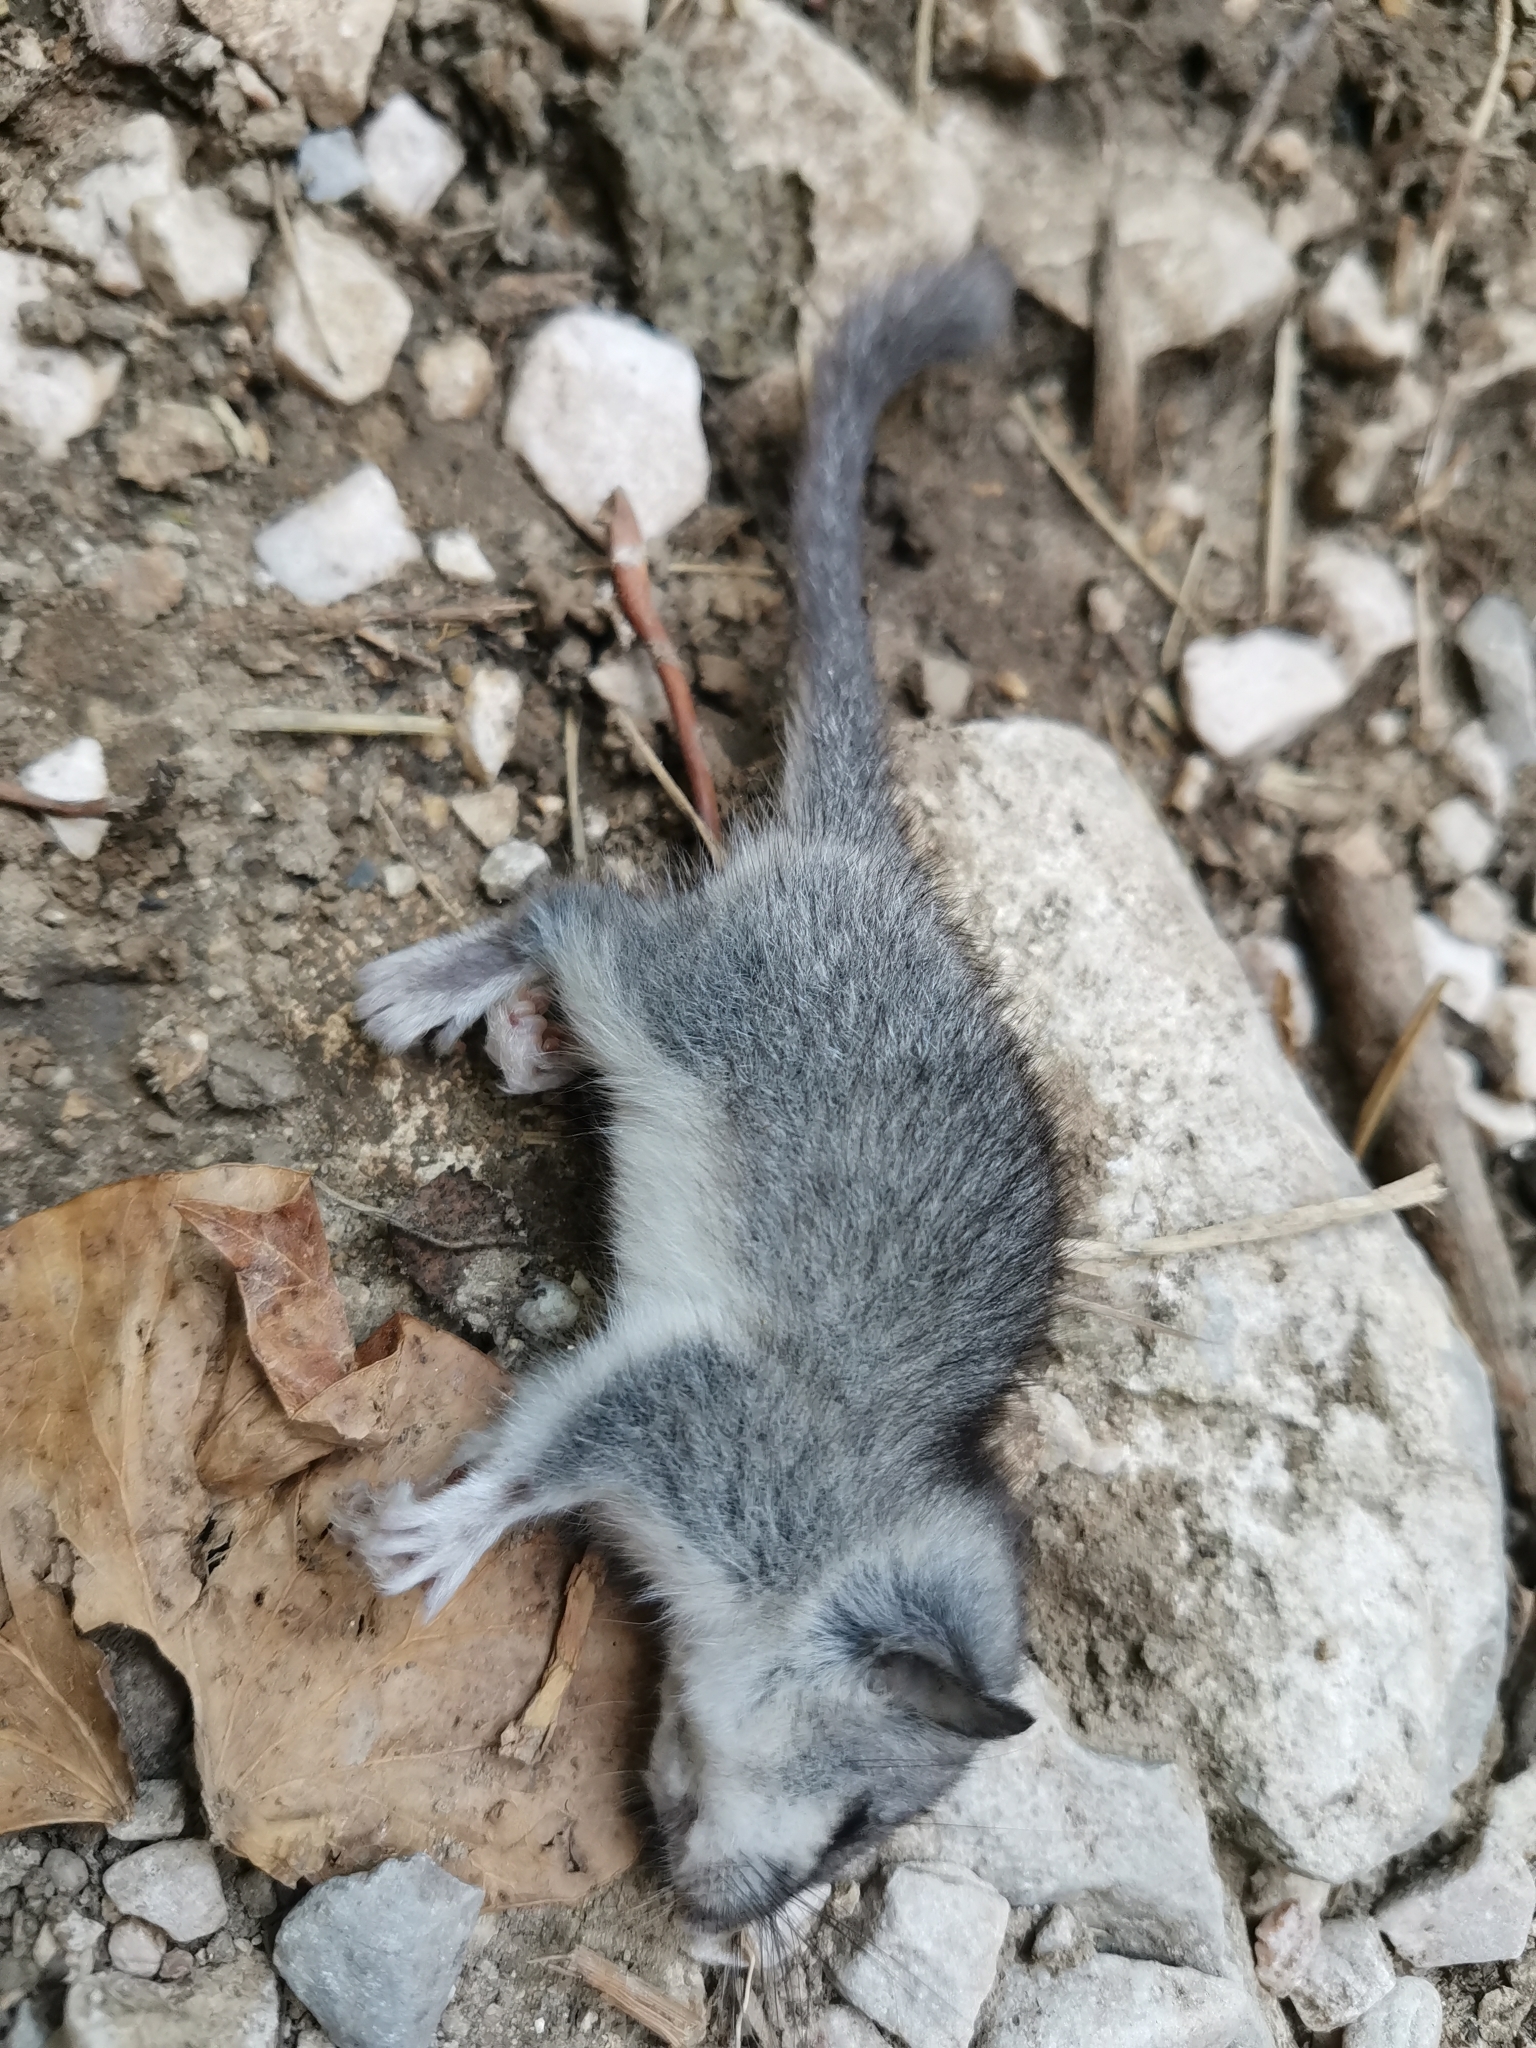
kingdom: Animalia
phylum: Chordata
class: Mammalia
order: Rodentia
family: Gliridae
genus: Glis
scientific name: Glis glis
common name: Fat dormouse
